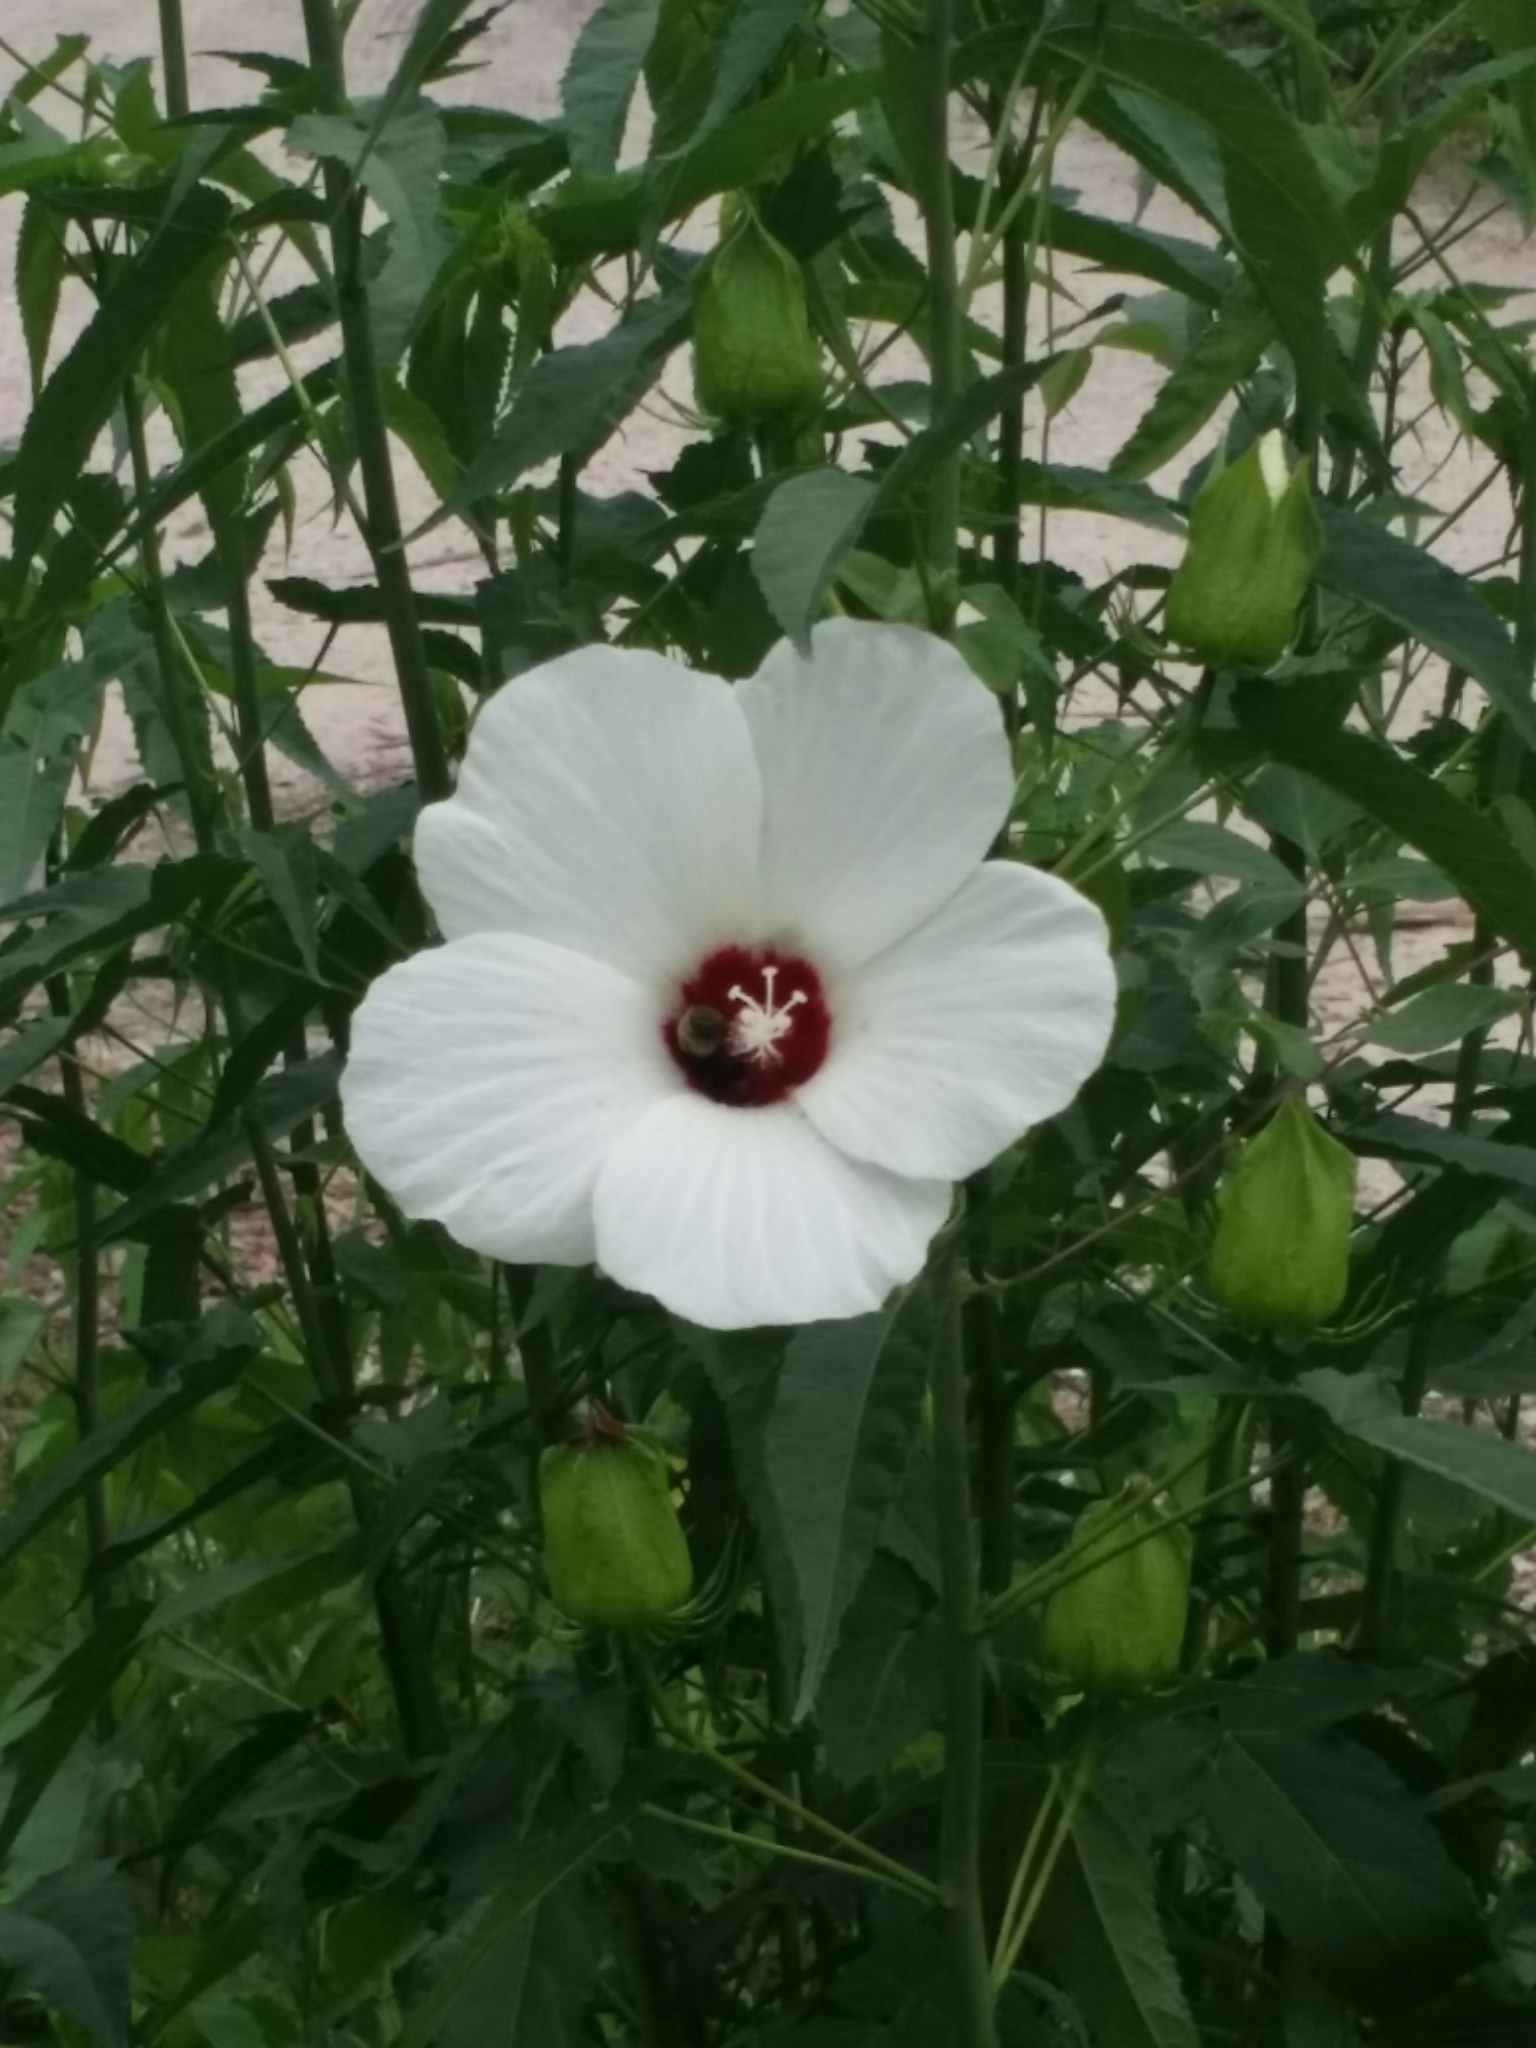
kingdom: Plantae
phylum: Tracheophyta
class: Magnoliopsida
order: Malvales
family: Malvaceae
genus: Hibiscus
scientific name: Hibiscus laevis
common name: Scarlet rose-mallow
